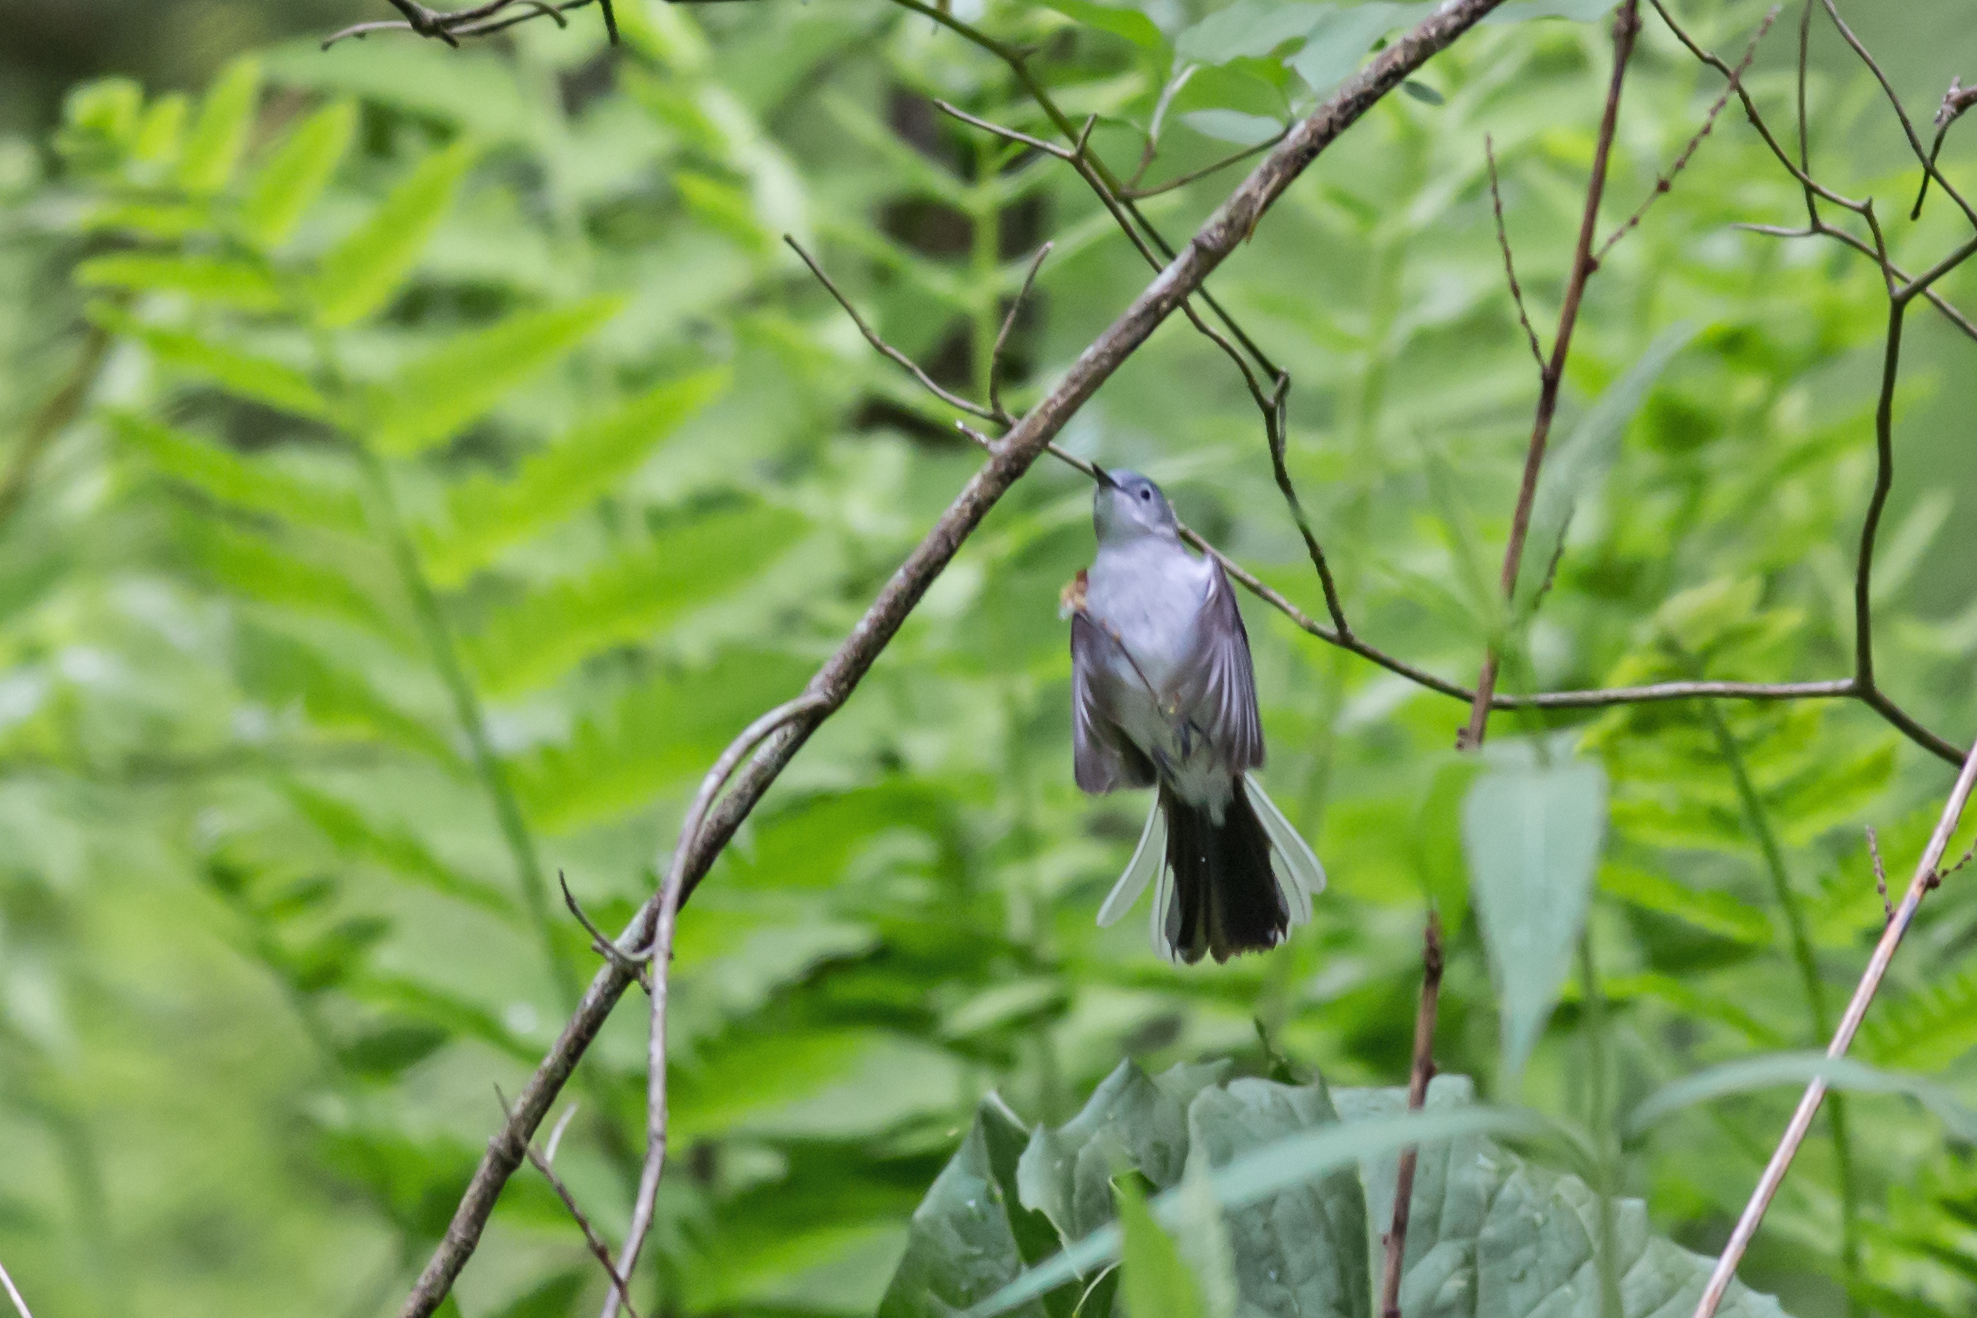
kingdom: Animalia
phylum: Chordata
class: Aves
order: Passeriformes
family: Polioptilidae
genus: Polioptila
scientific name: Polioptila caerulea
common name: Blue-gray gnatcatcher
